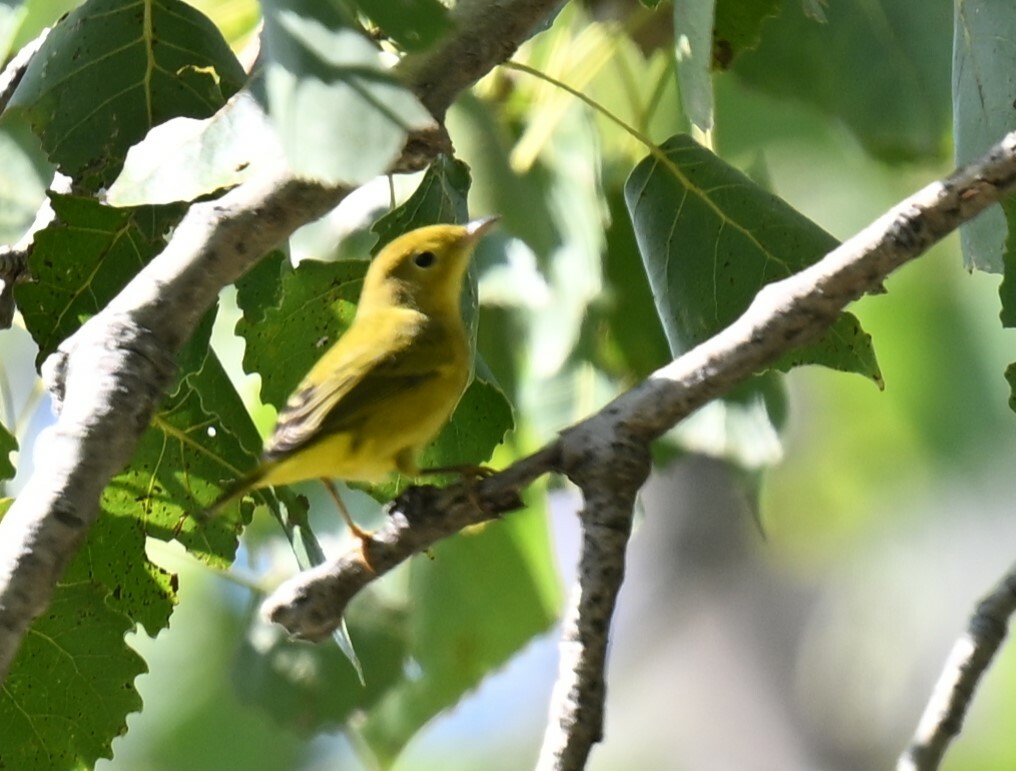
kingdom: Animalia
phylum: Chordata
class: Aves
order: Passeriformes
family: Parulidae
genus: Setophaga
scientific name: Setophaga petechia
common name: Yellow warbler
